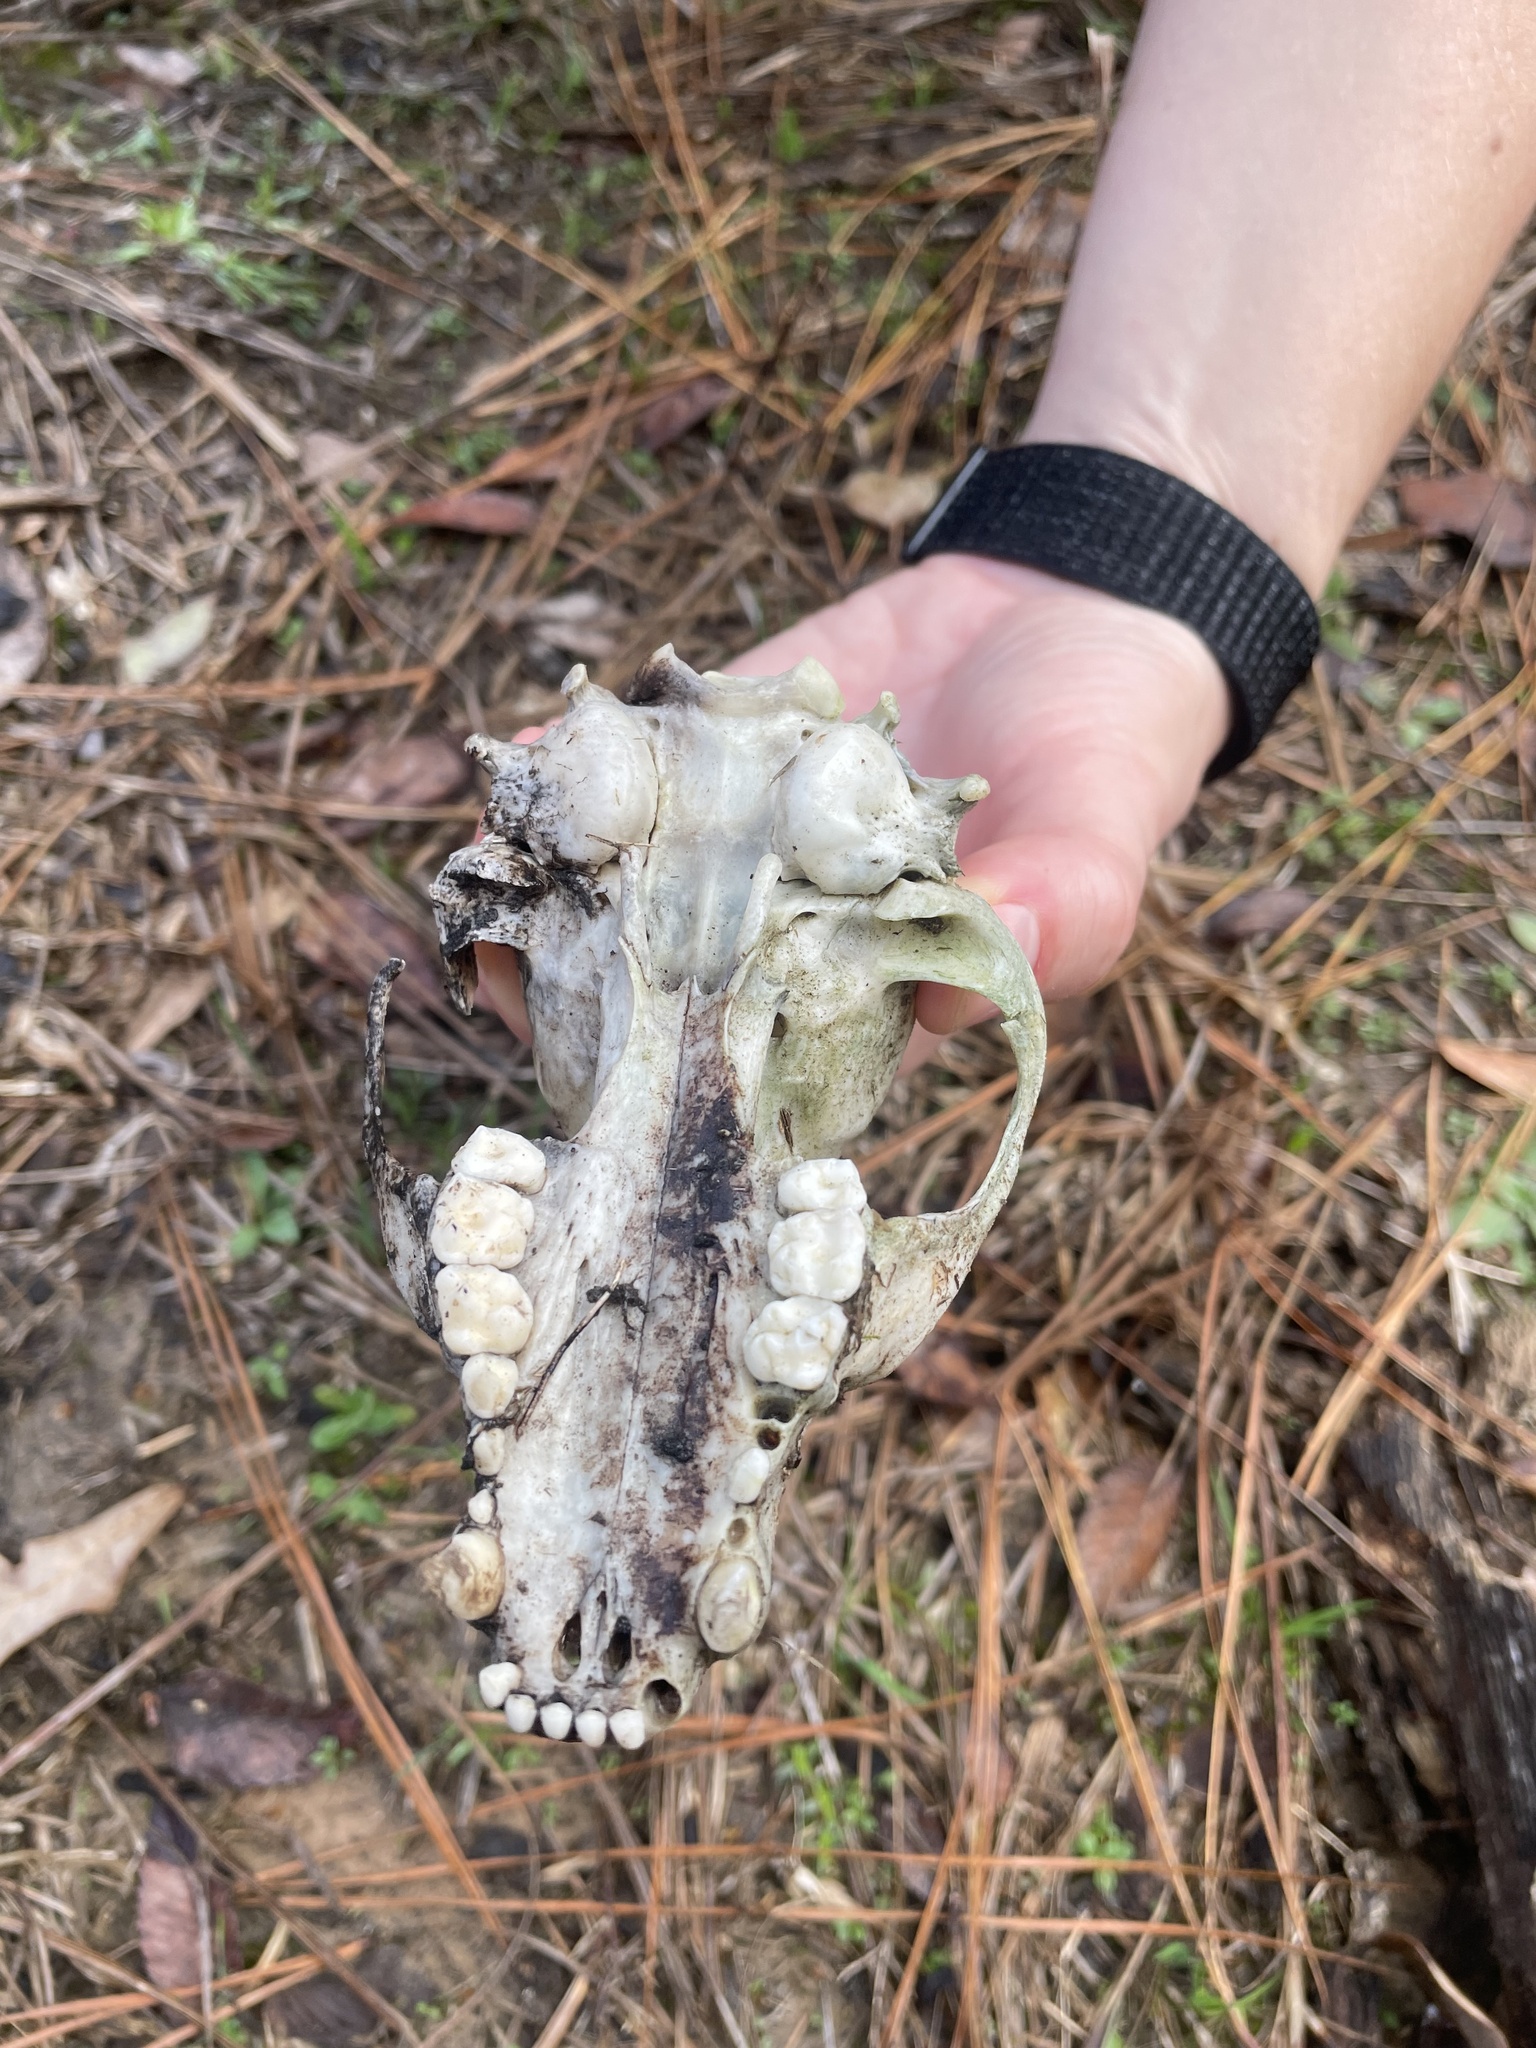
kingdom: Animalia
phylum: Chordata
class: Mammalia
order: Carnivora
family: Procyonidae
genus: Procyon
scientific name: Procyon lotor
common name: Raccoon
